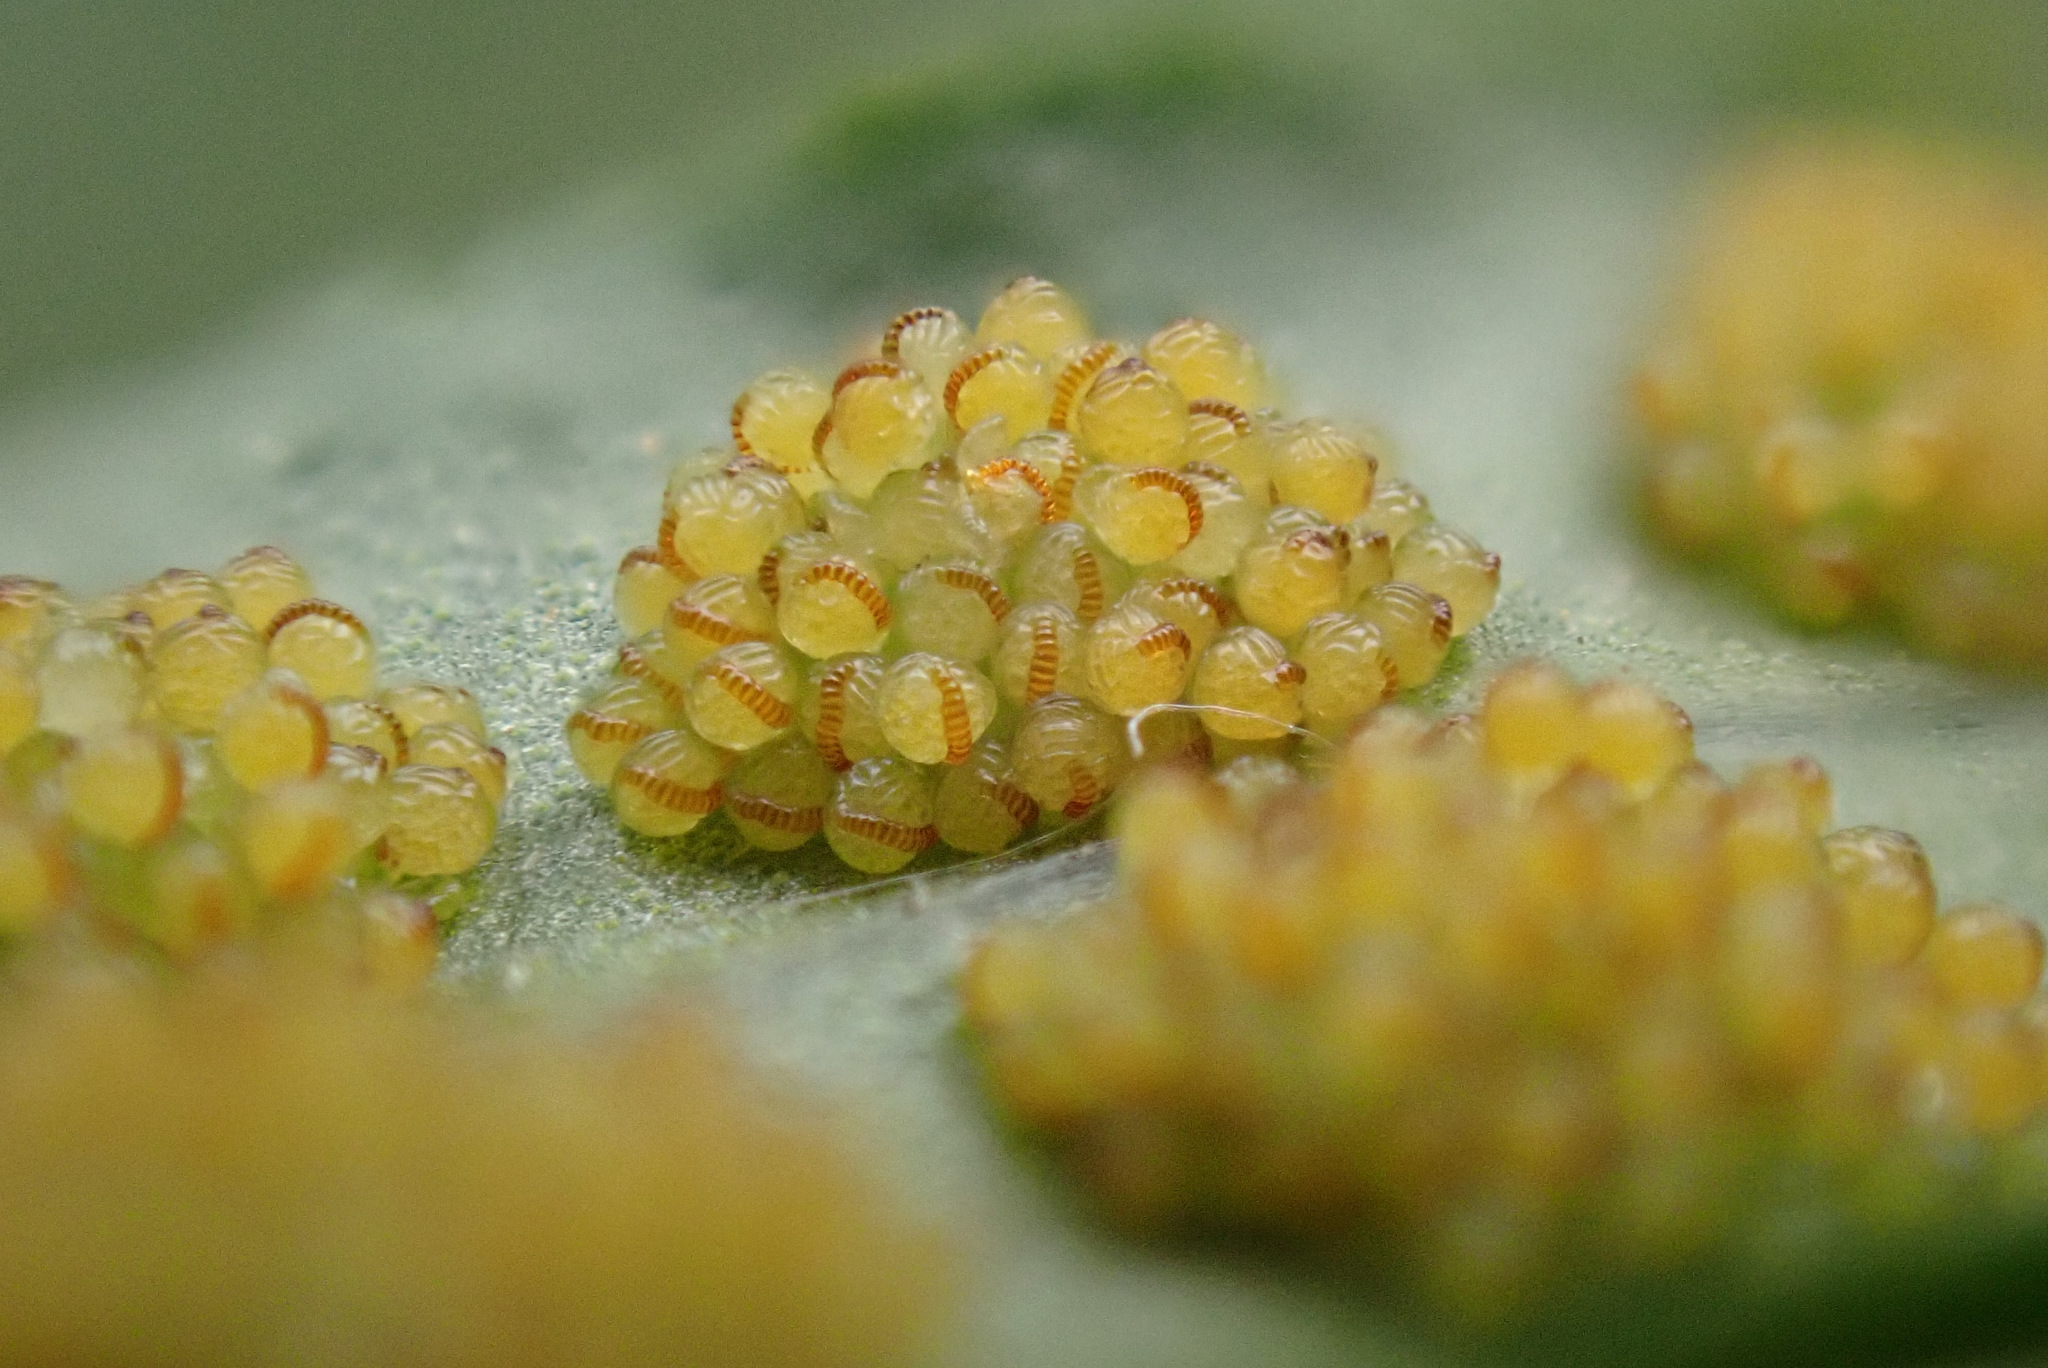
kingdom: Plantae
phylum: Tracheophyta
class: Polypodiopsida
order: Polypodiales
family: Polypodiaceae
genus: Polypodium
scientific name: Polypodium vulgare
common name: Common polypody
